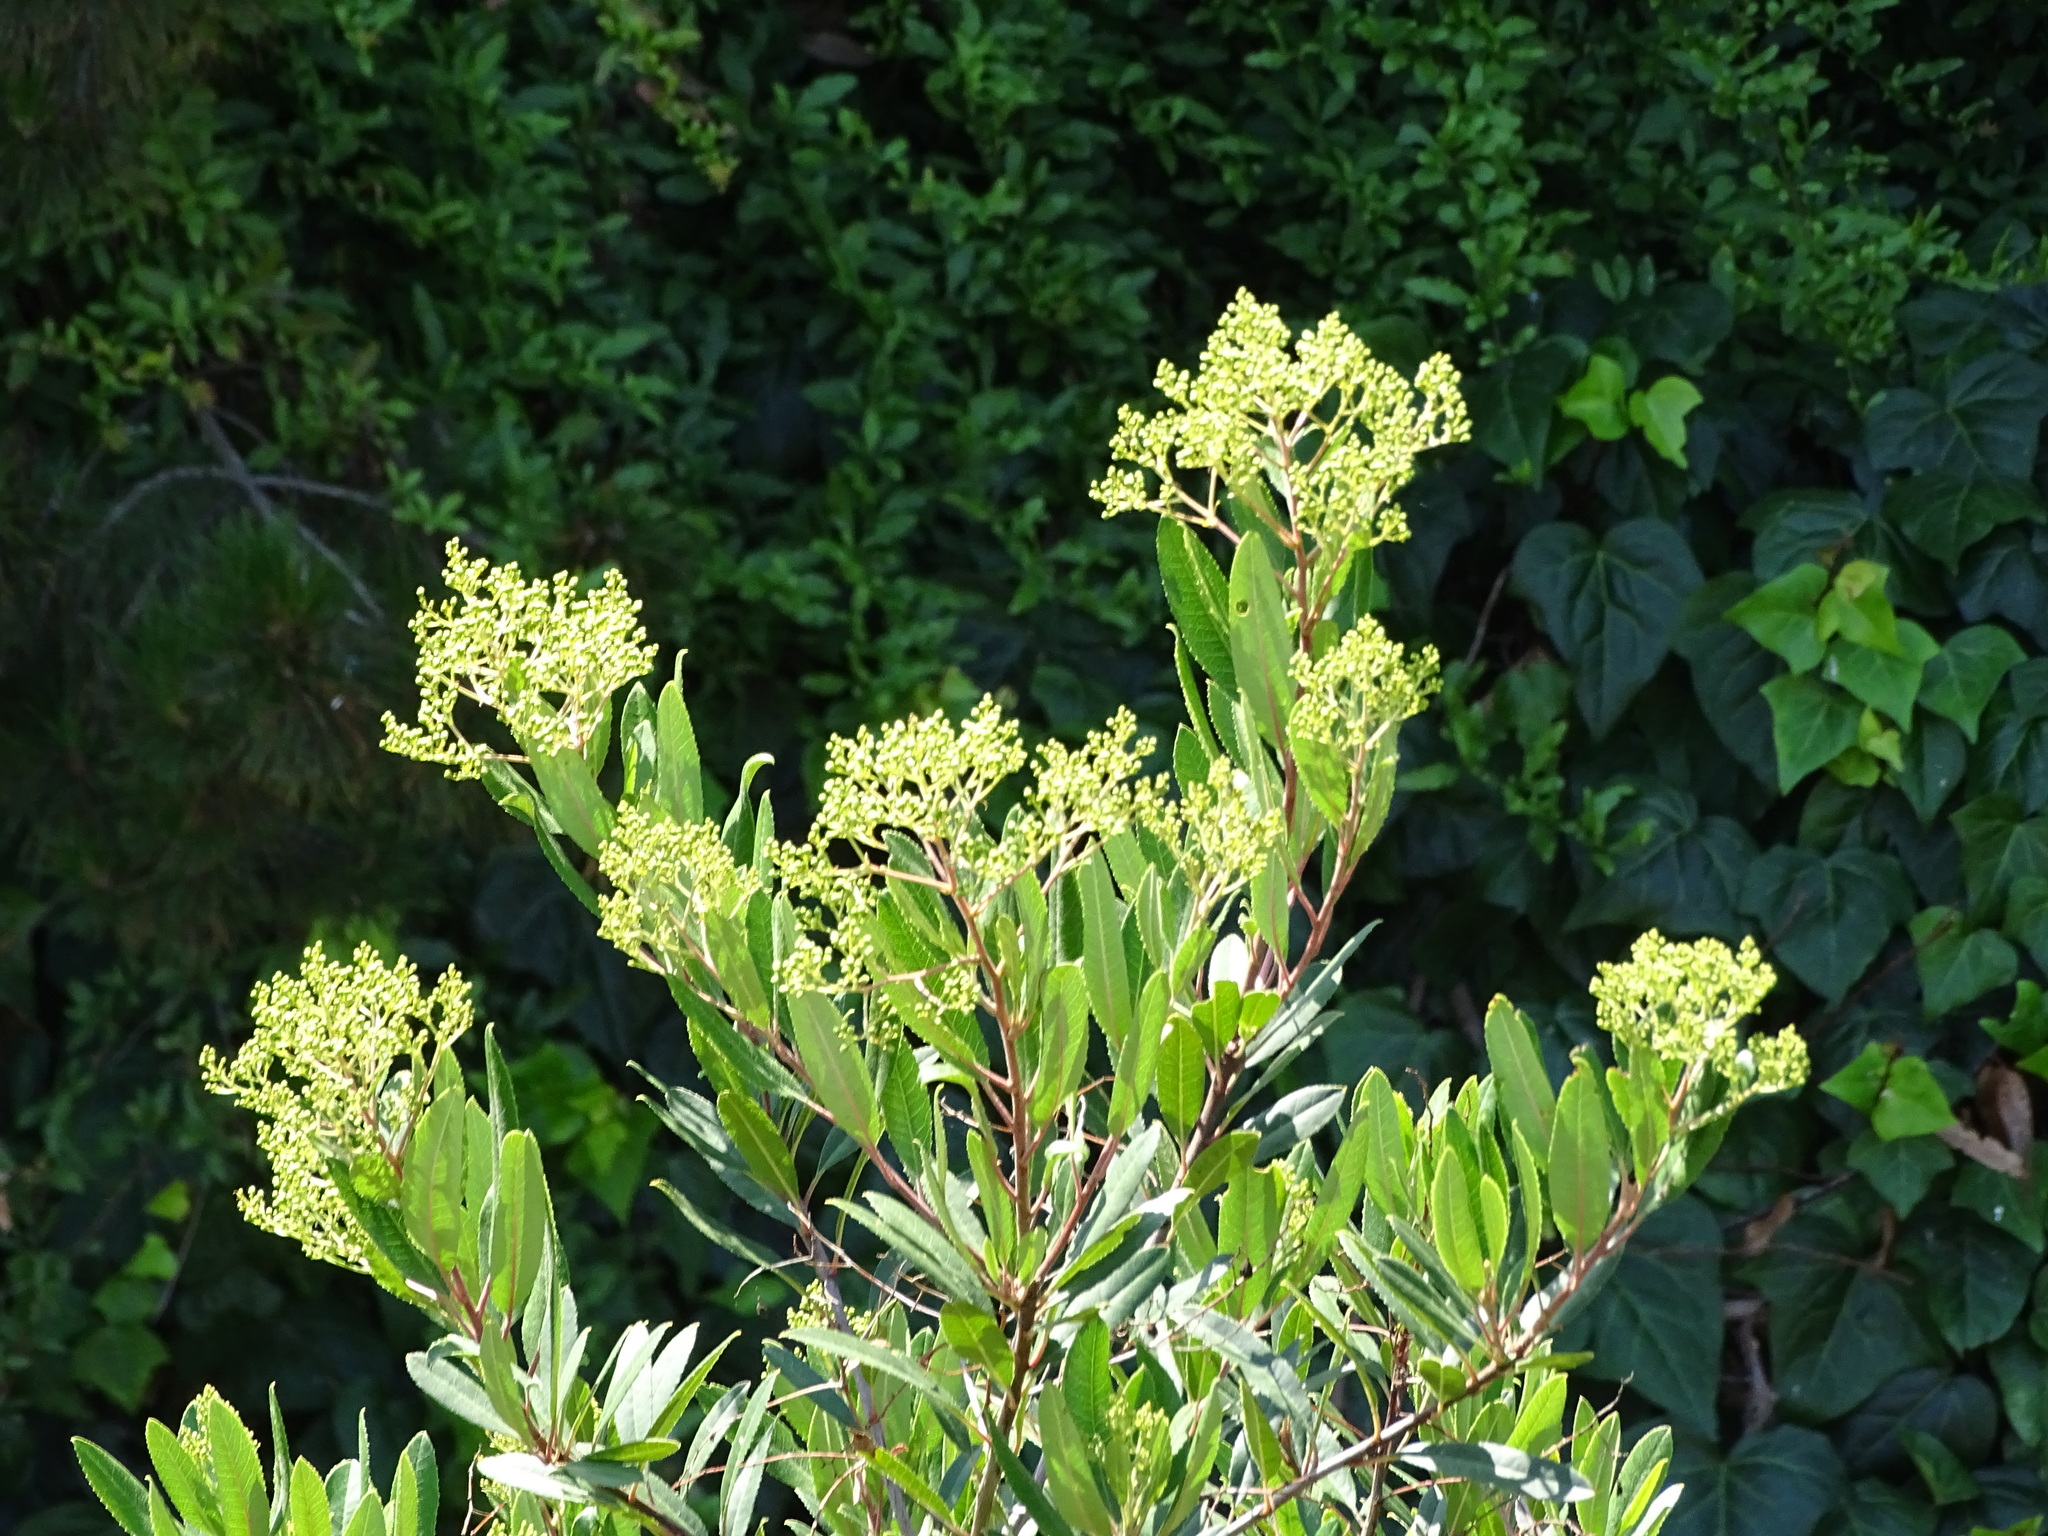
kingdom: Plantae
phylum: Tracheophyta
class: Magnoliopsida
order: Rosales
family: Rosaceae
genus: Heteromeles
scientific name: Heteromeles arbutifolia
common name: California-holly
